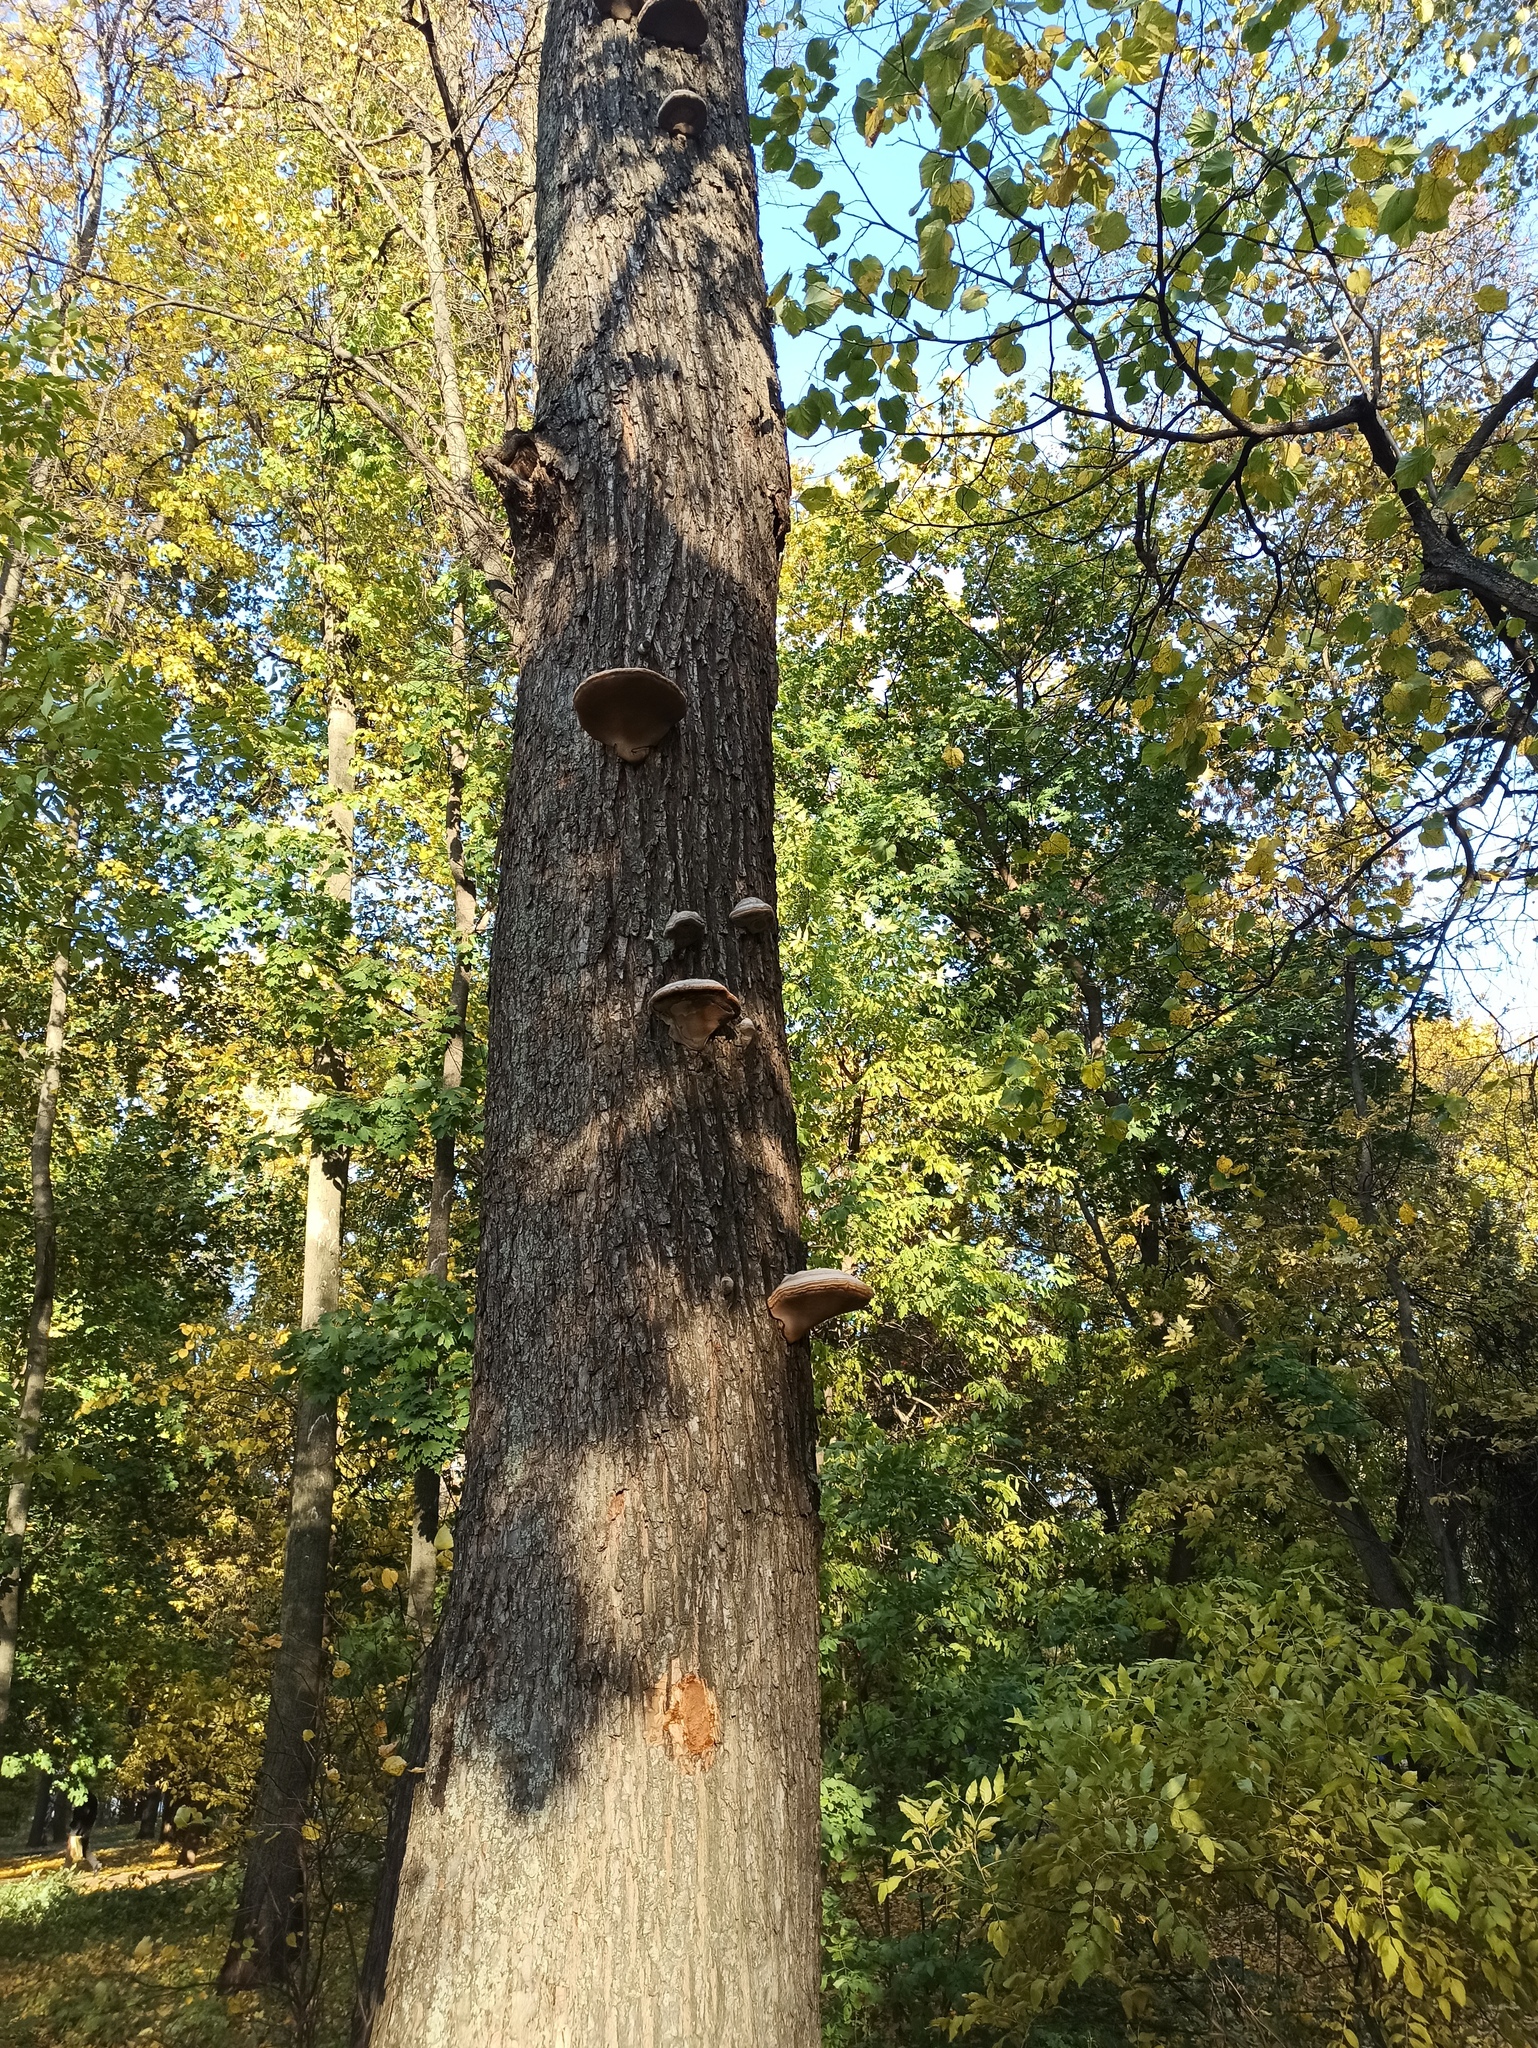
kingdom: Fungi
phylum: Basidiomycota
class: Agaricomycetes
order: Polyporales
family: Polyporaceae
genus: Fomes
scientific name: Fomes fomentarius
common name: Hoof fungus
